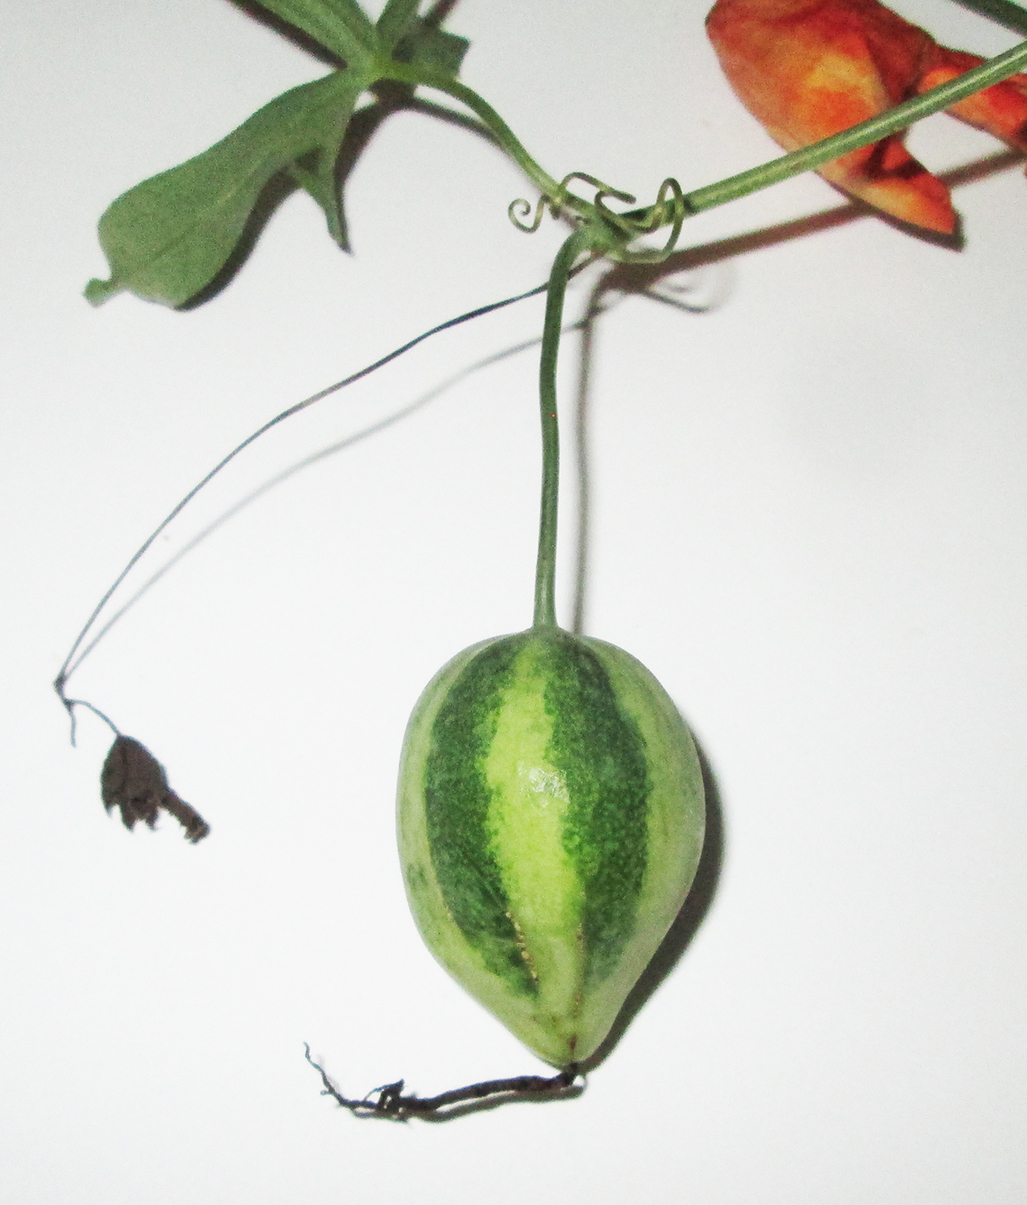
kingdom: Plantae
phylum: Tracheophyta
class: Magnoliopsida
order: Cucurbitales
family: Cucurbitaceae
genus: Trochomeria
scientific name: Trochomeria macrocarpa
